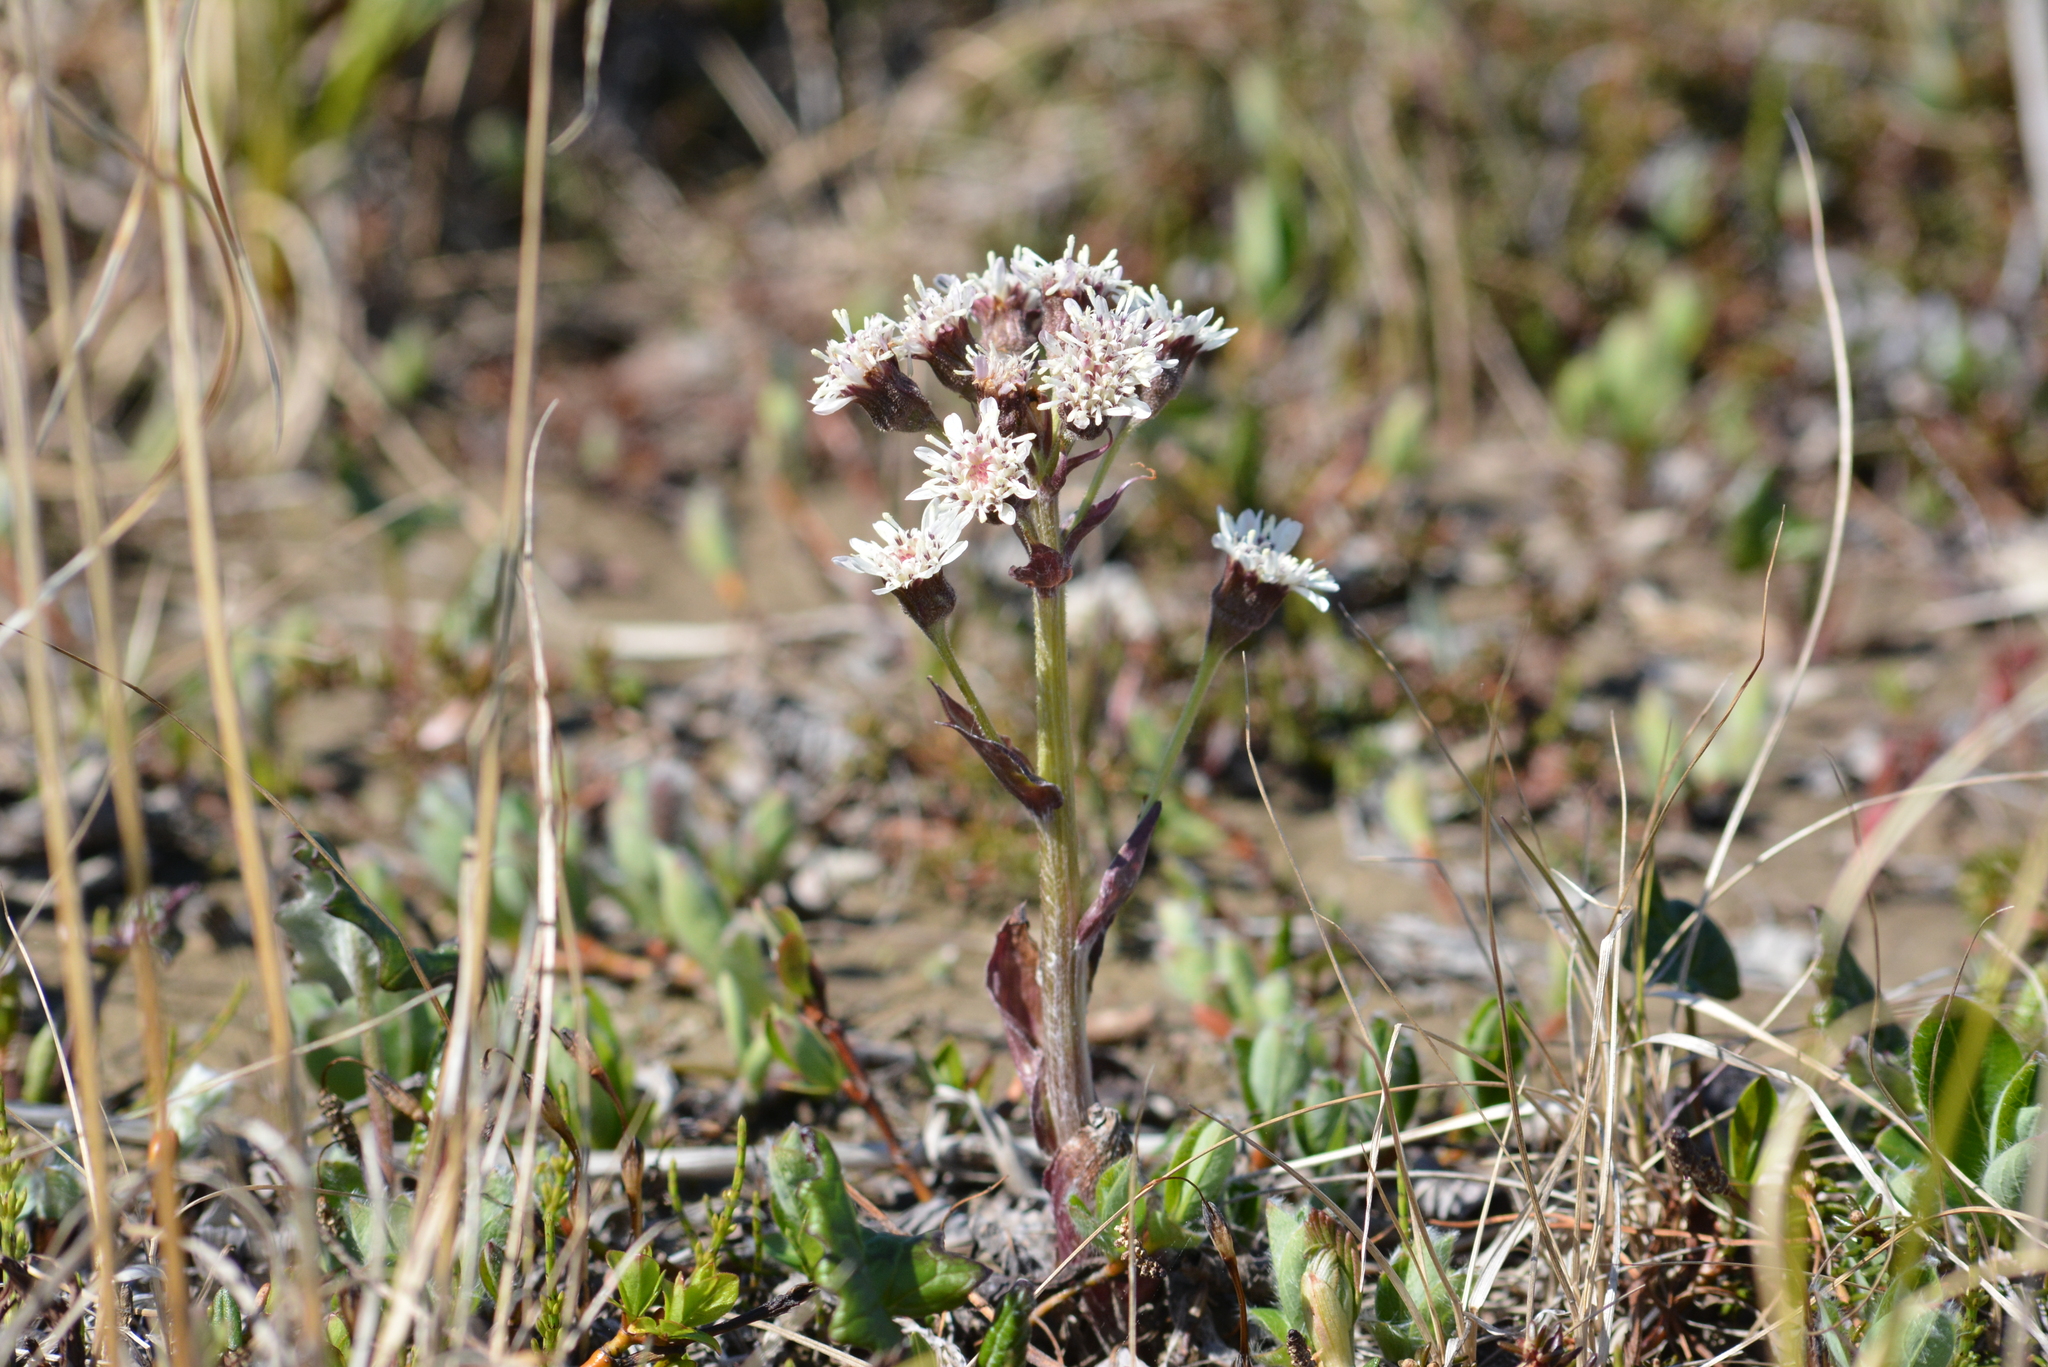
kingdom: Plantae
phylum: Tracheophyta
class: Magnoliopsida
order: Asterales
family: Asteraceae
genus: Petasites
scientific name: Petasites frigidus
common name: Arctic butterbur
